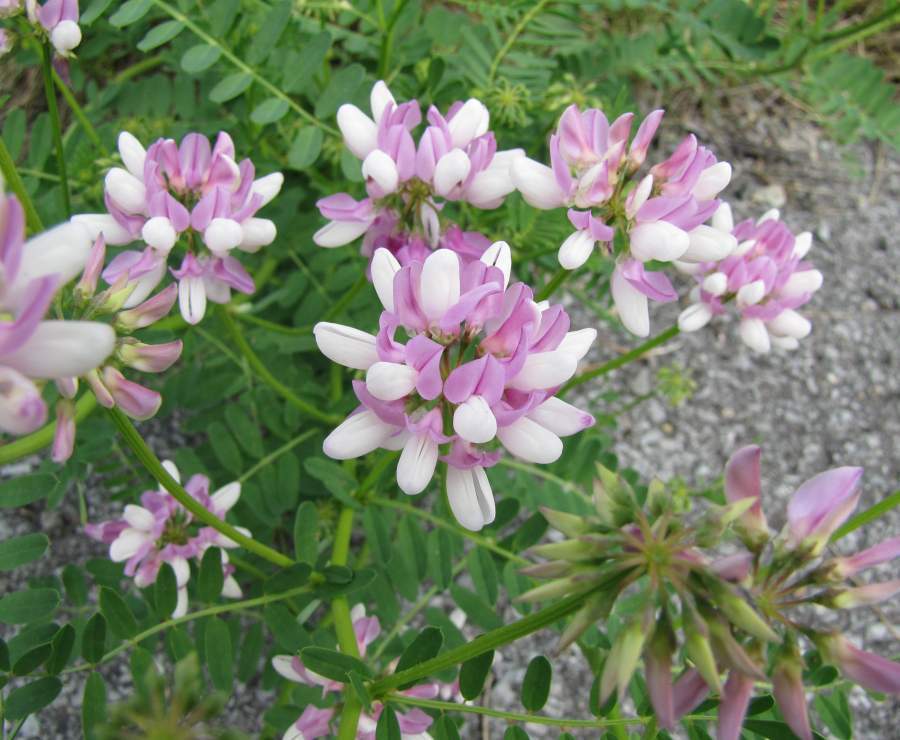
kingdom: Plantae
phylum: Tracheophyta
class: Magnoliopsida
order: Fabales
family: Fabaceae
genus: Coronilla
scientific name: Coronilla varia
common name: Crownvetch
